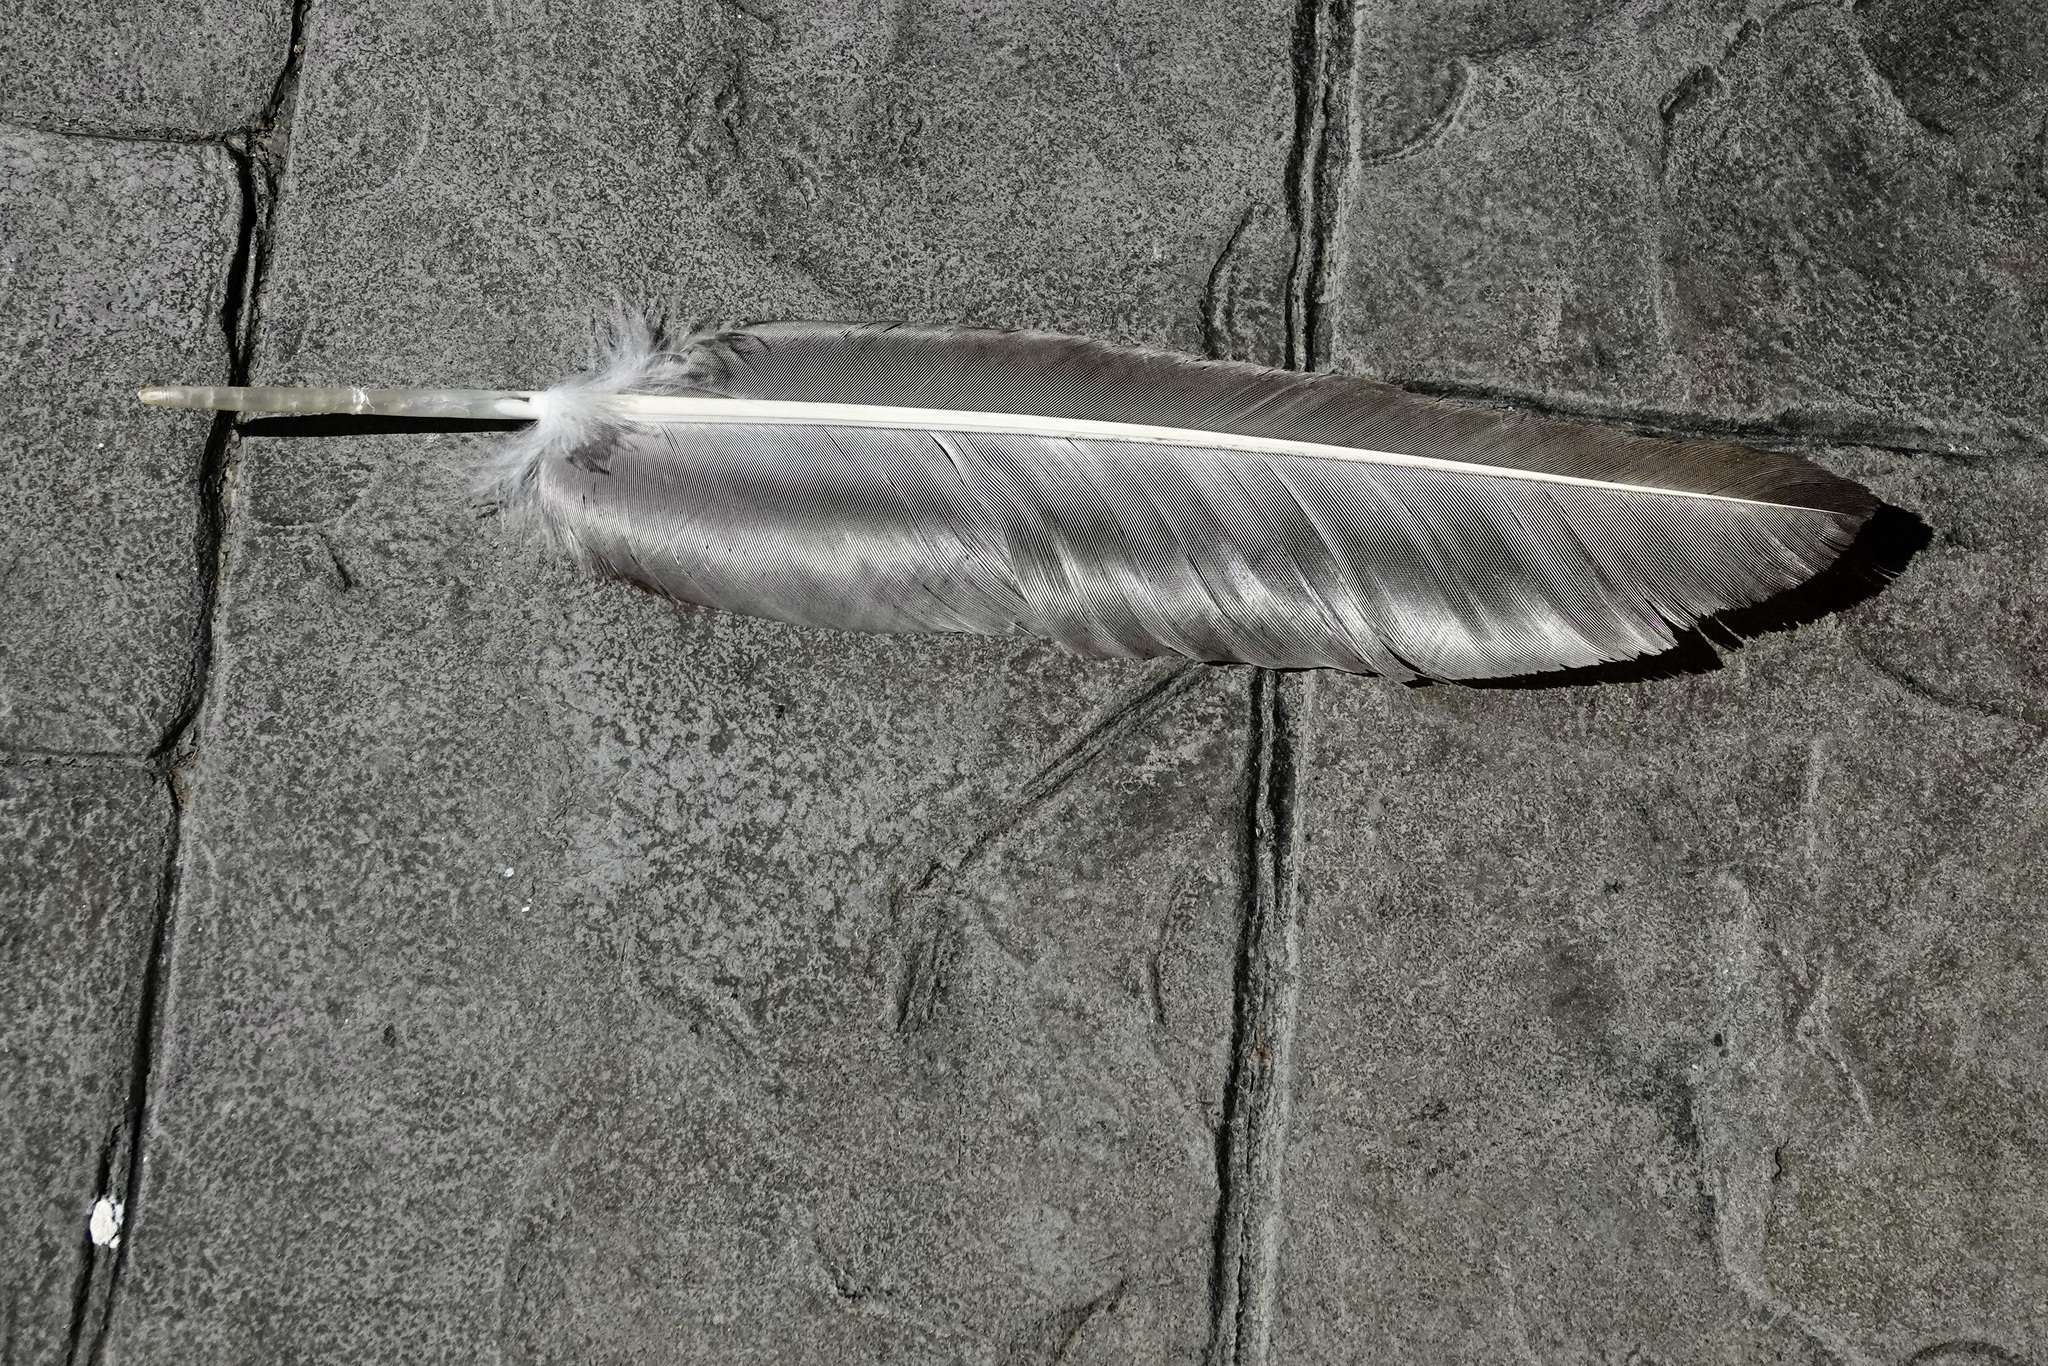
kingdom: Animalia
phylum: Chordata
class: Aves
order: Accipitriformes
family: Cathartidae
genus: Cathartes
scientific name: Cathartes aura
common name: Turkey vulture
